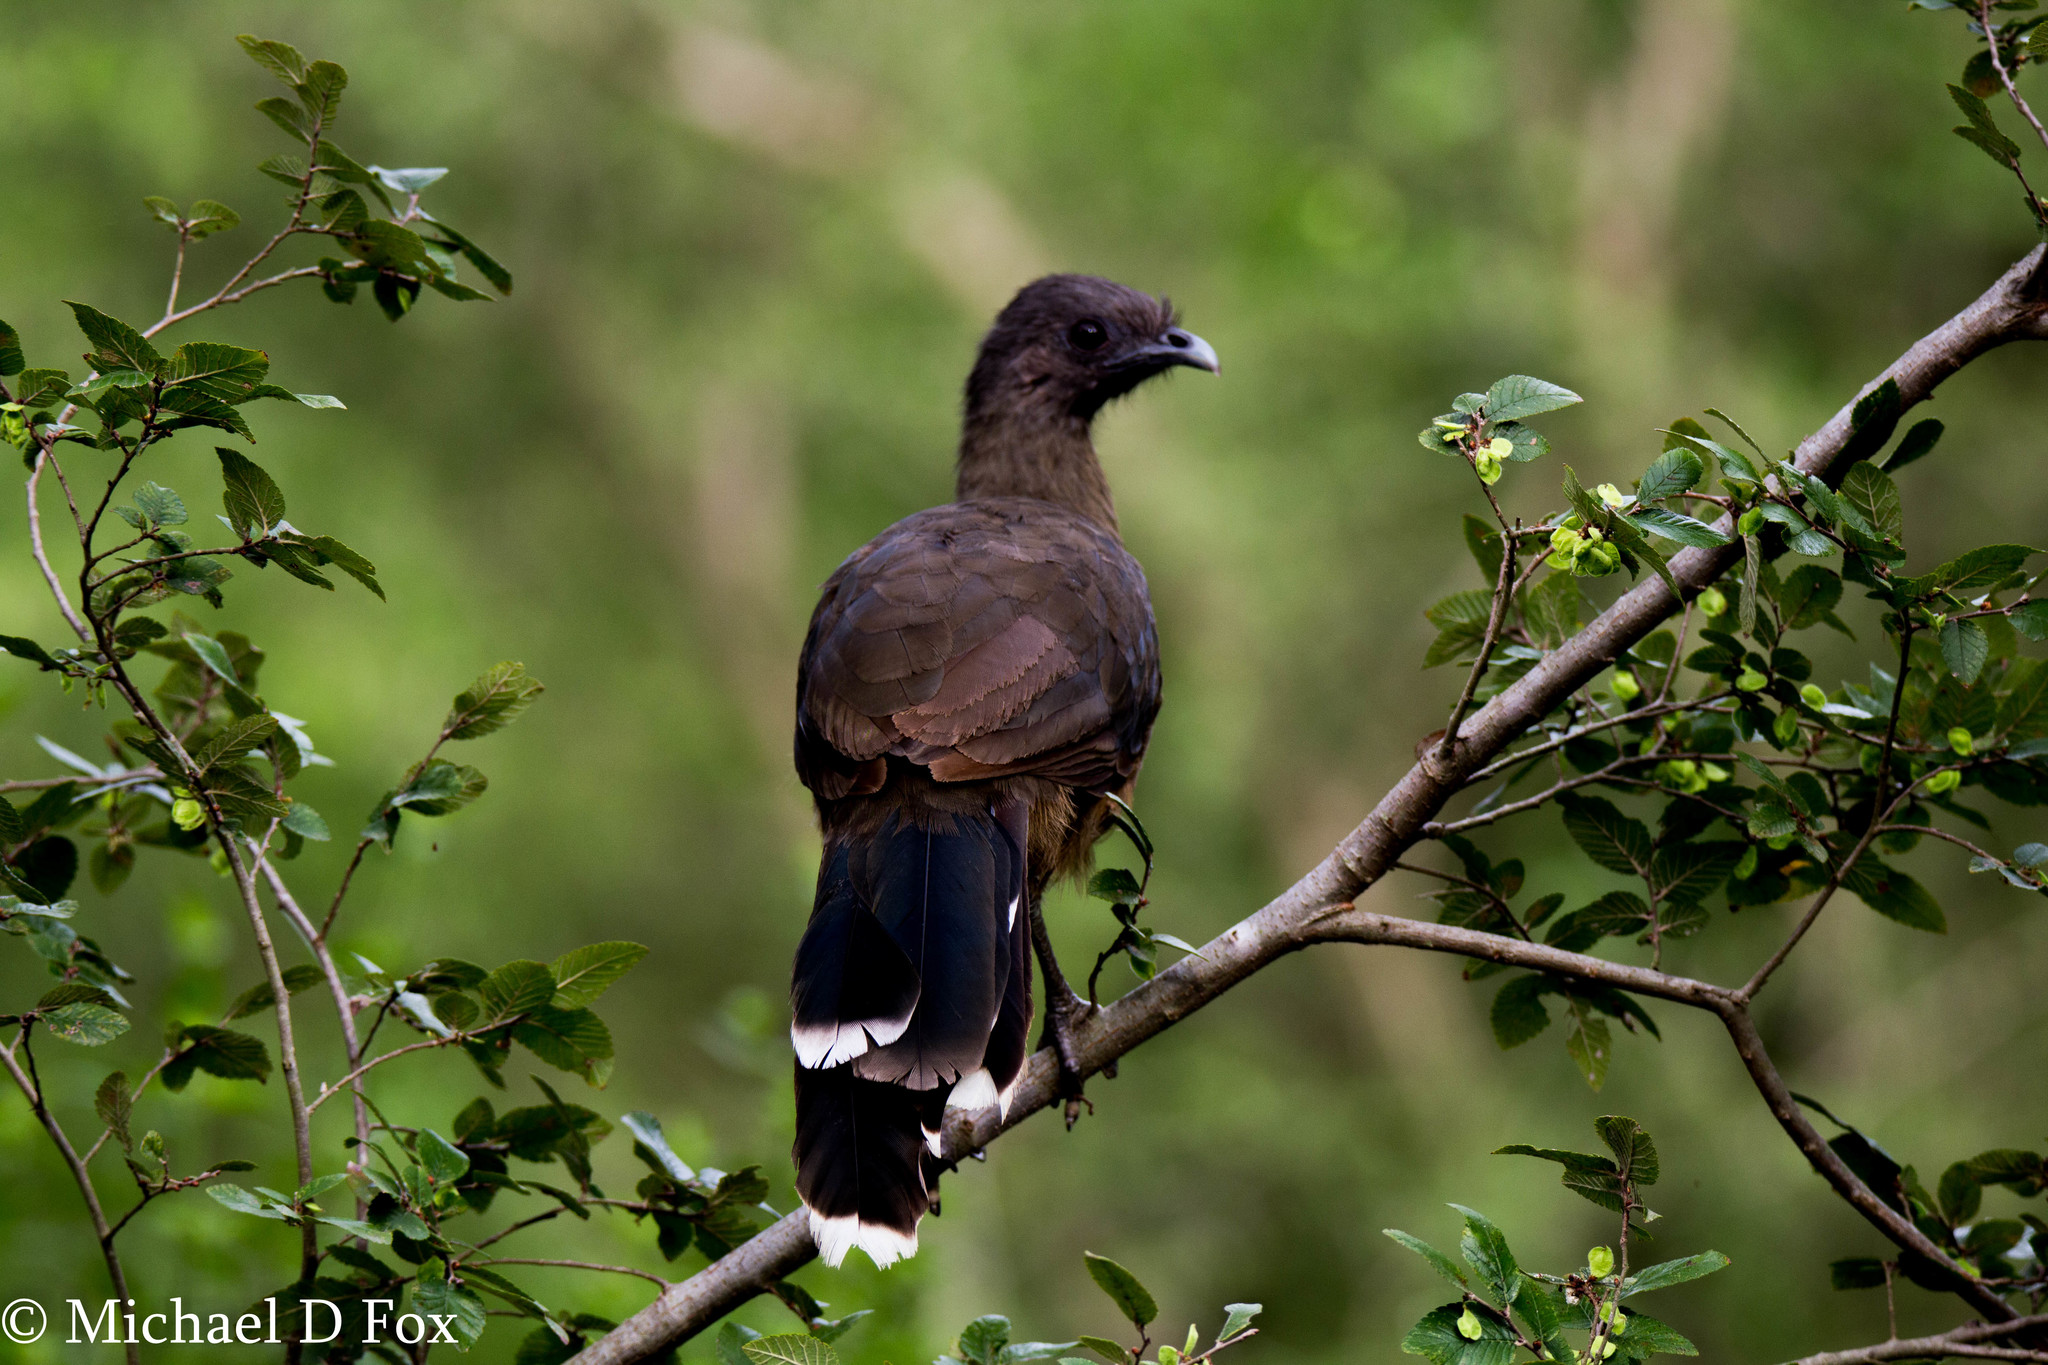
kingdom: Animalia
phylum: Chordata
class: Aves
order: Galliformes
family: Cracidae
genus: Ortalis
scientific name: Ortalis vetula
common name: Plain chachalaca
